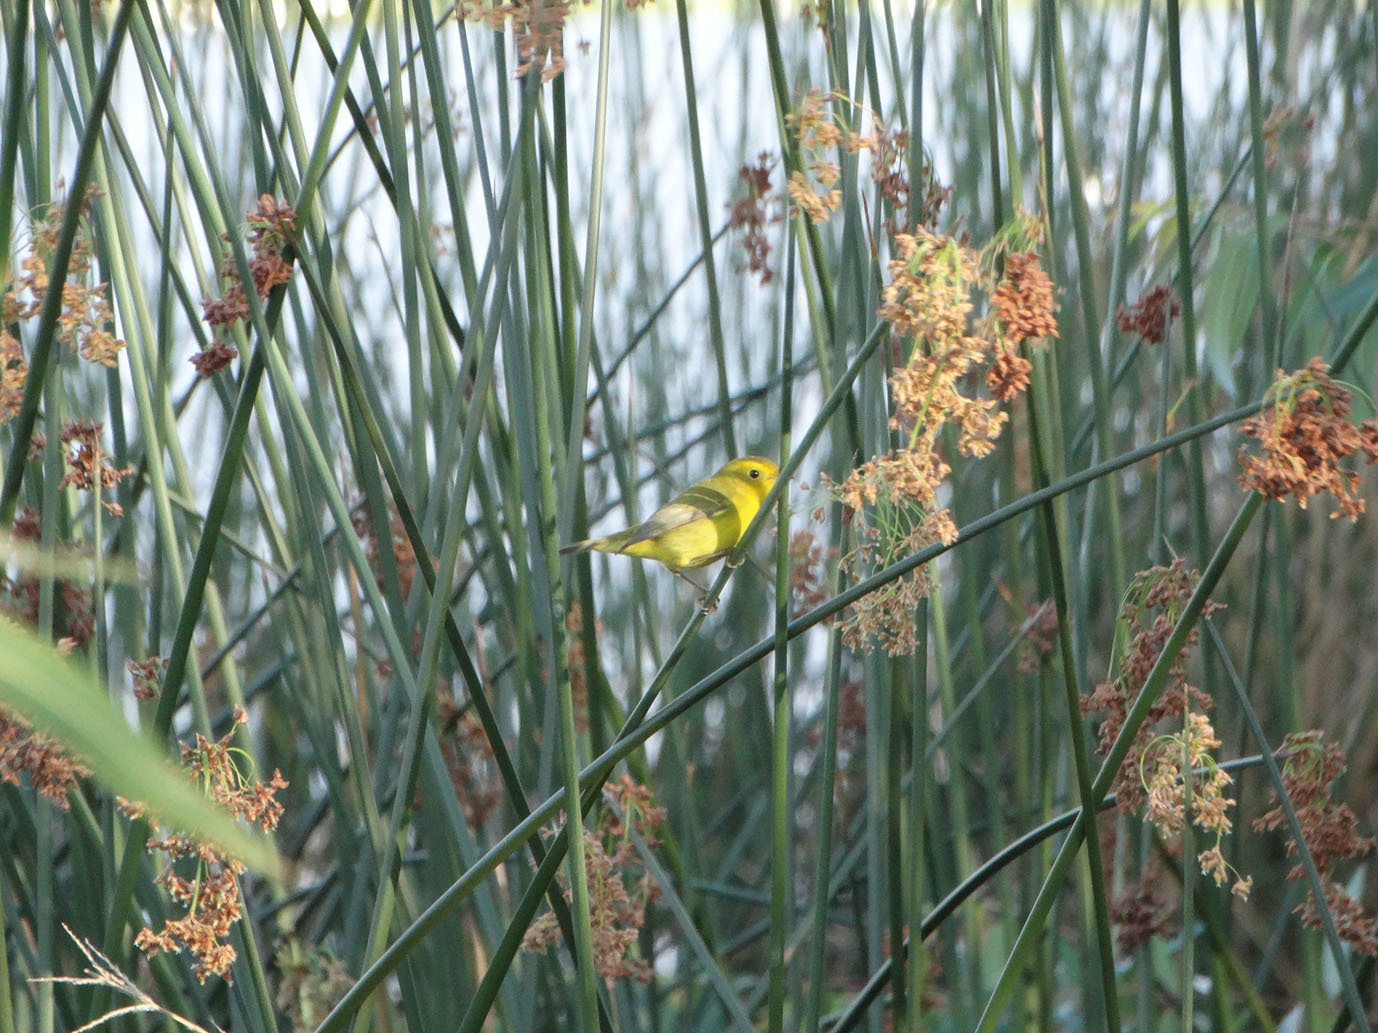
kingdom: Animalia
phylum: Chordata
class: Aves
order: Passeriformes
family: Parulidae
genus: Cardellina
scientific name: Cardellina pusilla
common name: Wilson's warbler
